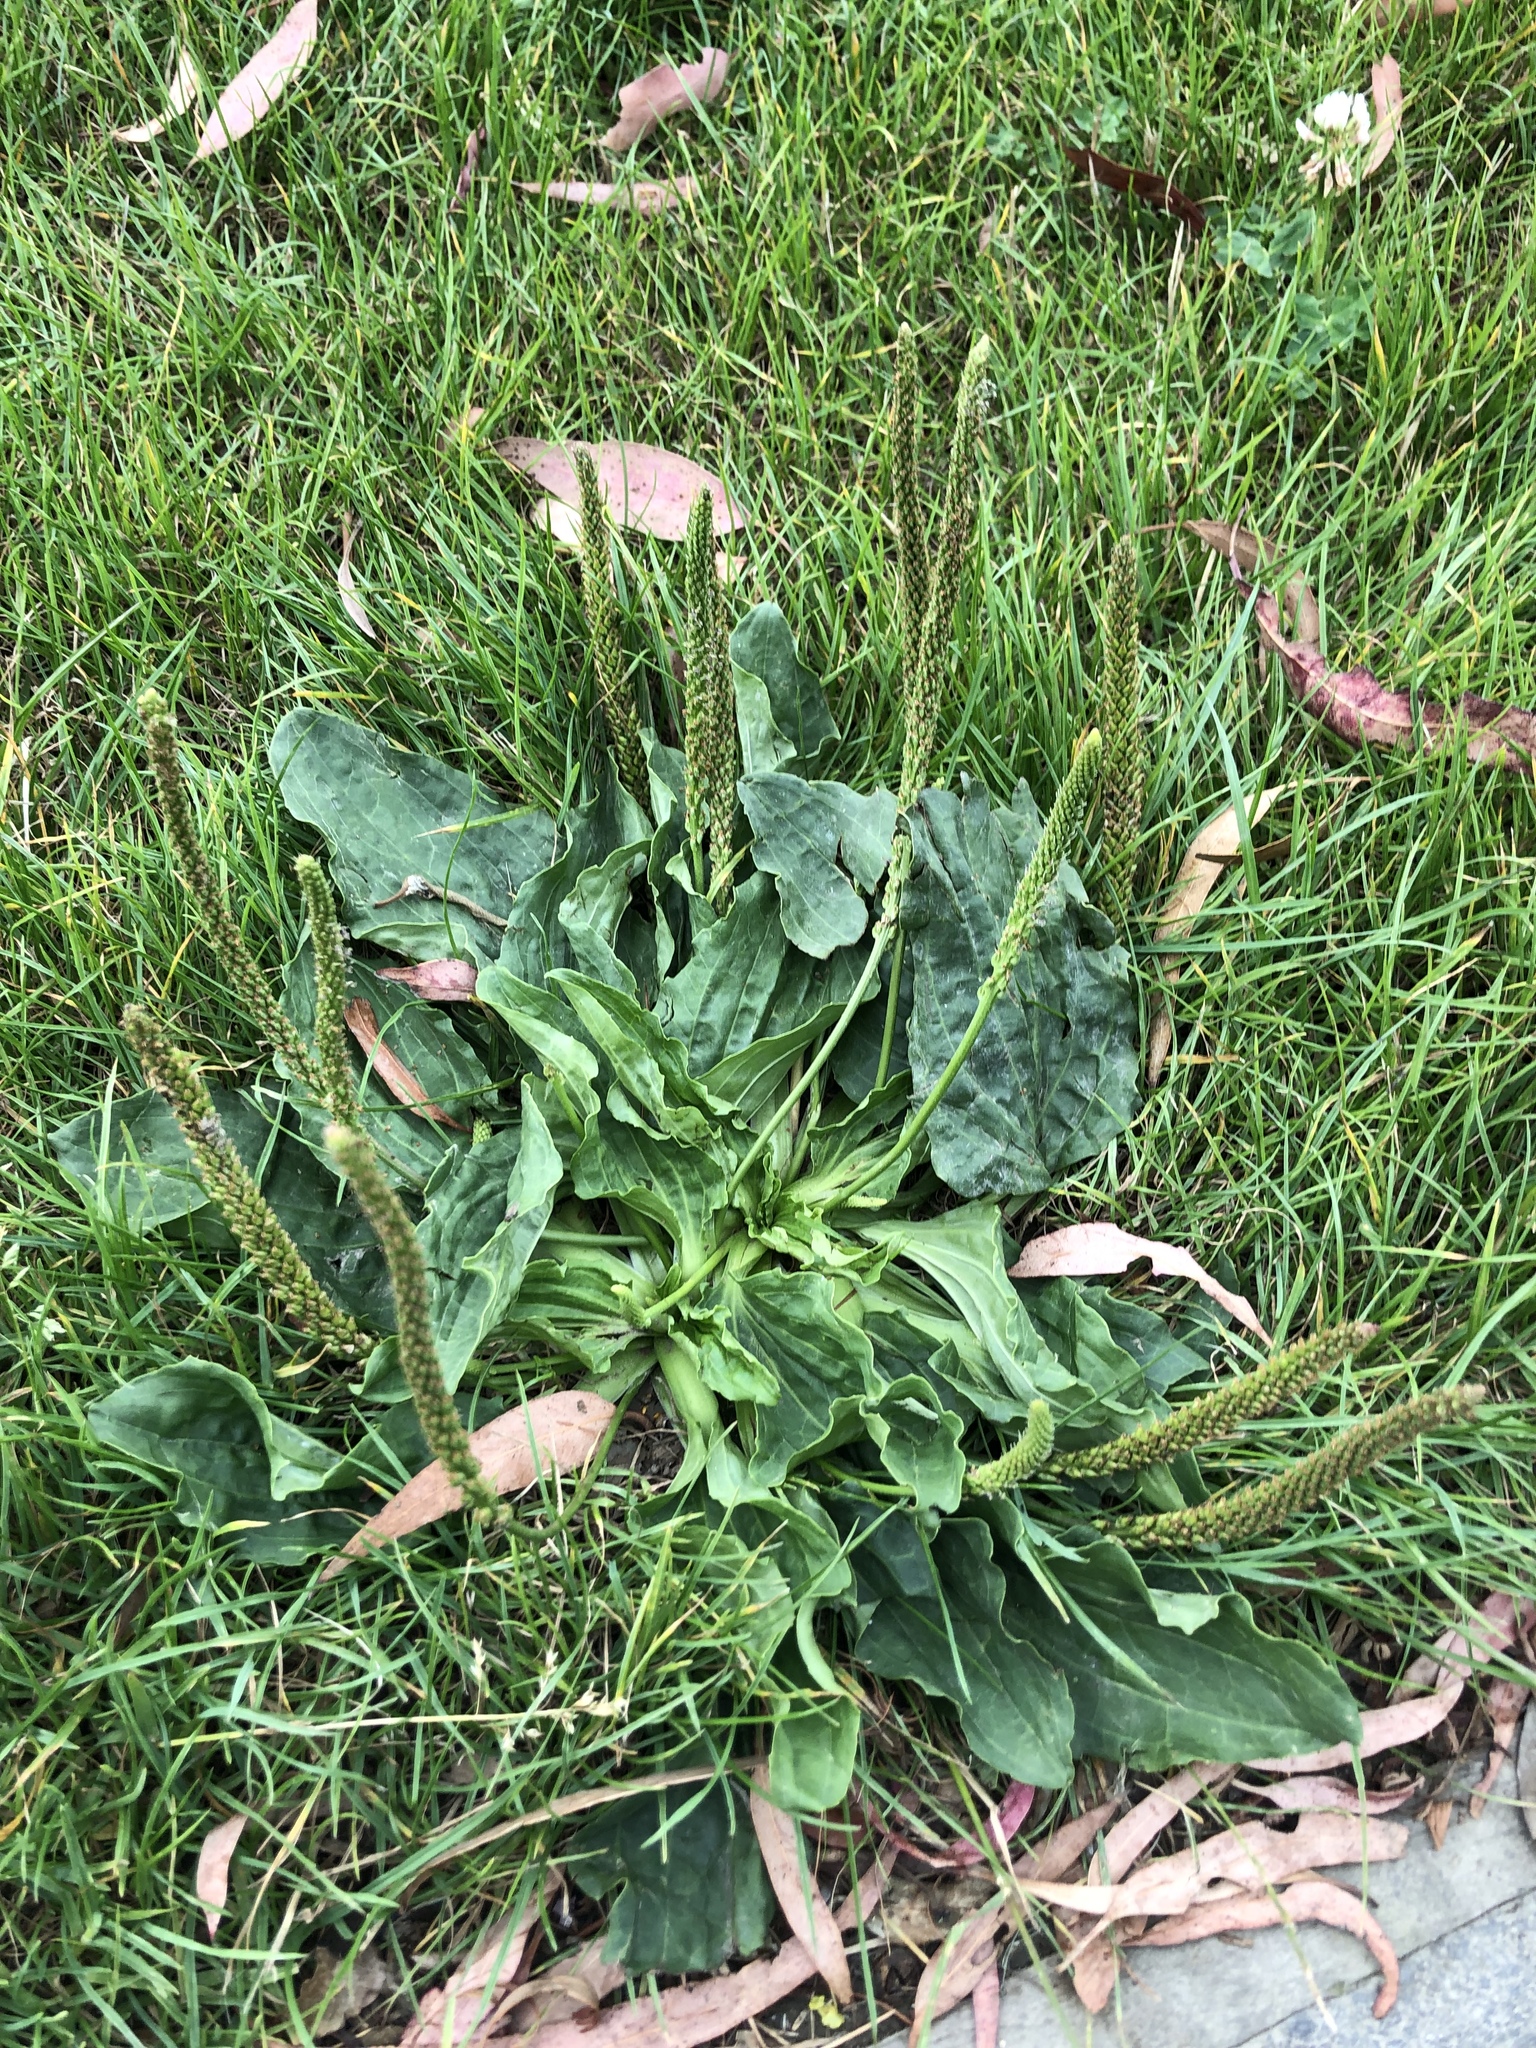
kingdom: Plantae
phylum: Tracheophyta
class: Magnoliopsida
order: Lamiales
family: Plantaginaceae
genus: Plantago
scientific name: Plantago major
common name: Common plantain
